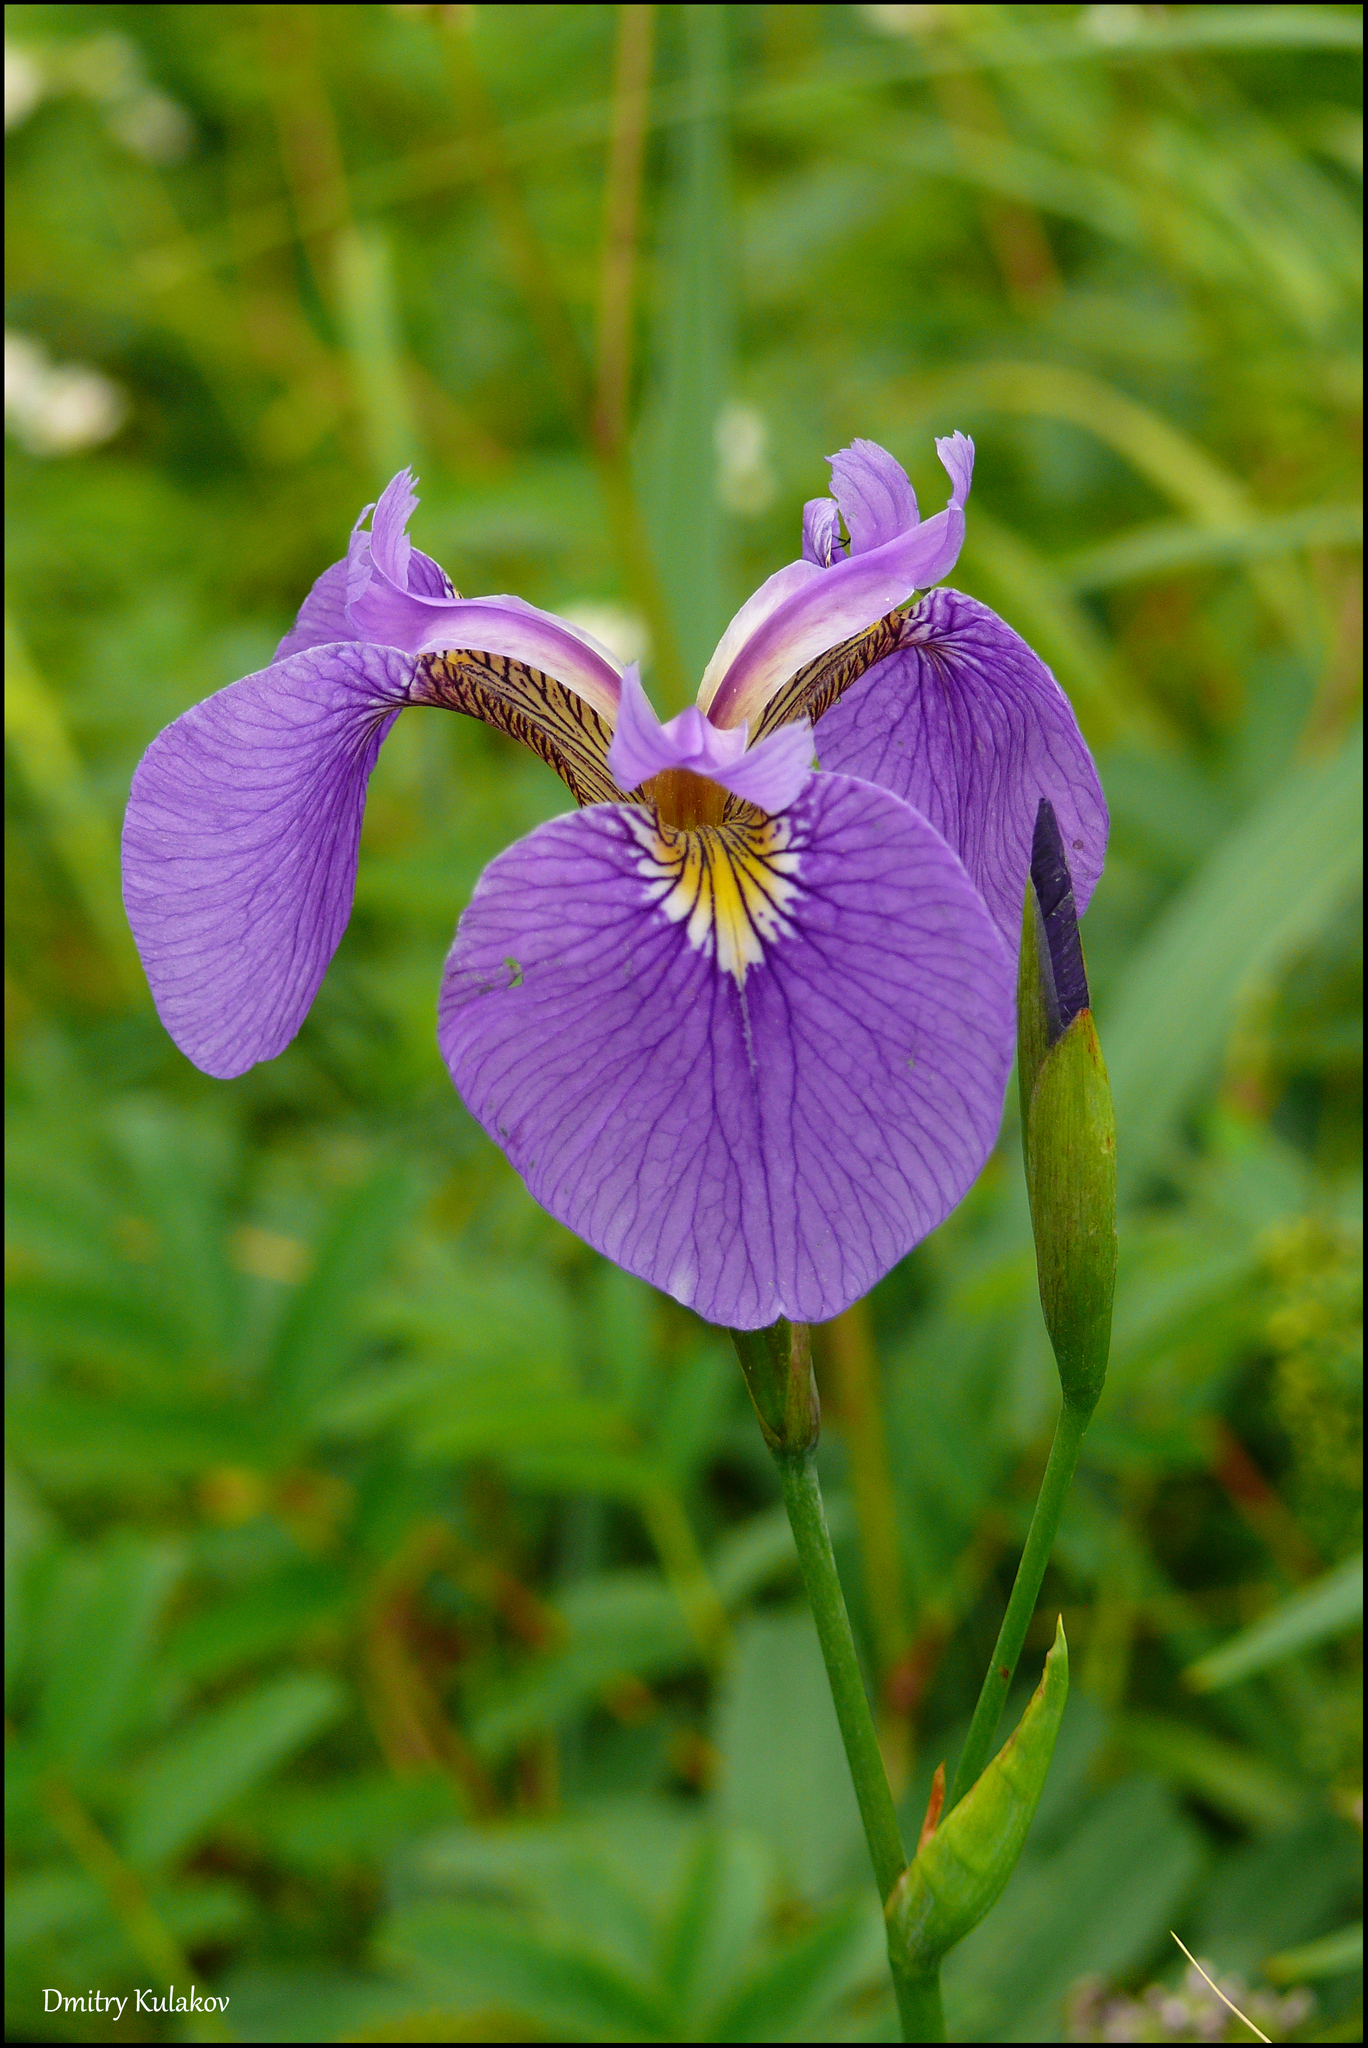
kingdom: Plantae
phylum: Tracheophyta
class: Liliopsida
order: Asparagales
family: Iridaceae
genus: Iris
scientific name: Iris setosa
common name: Arctic blue flag
